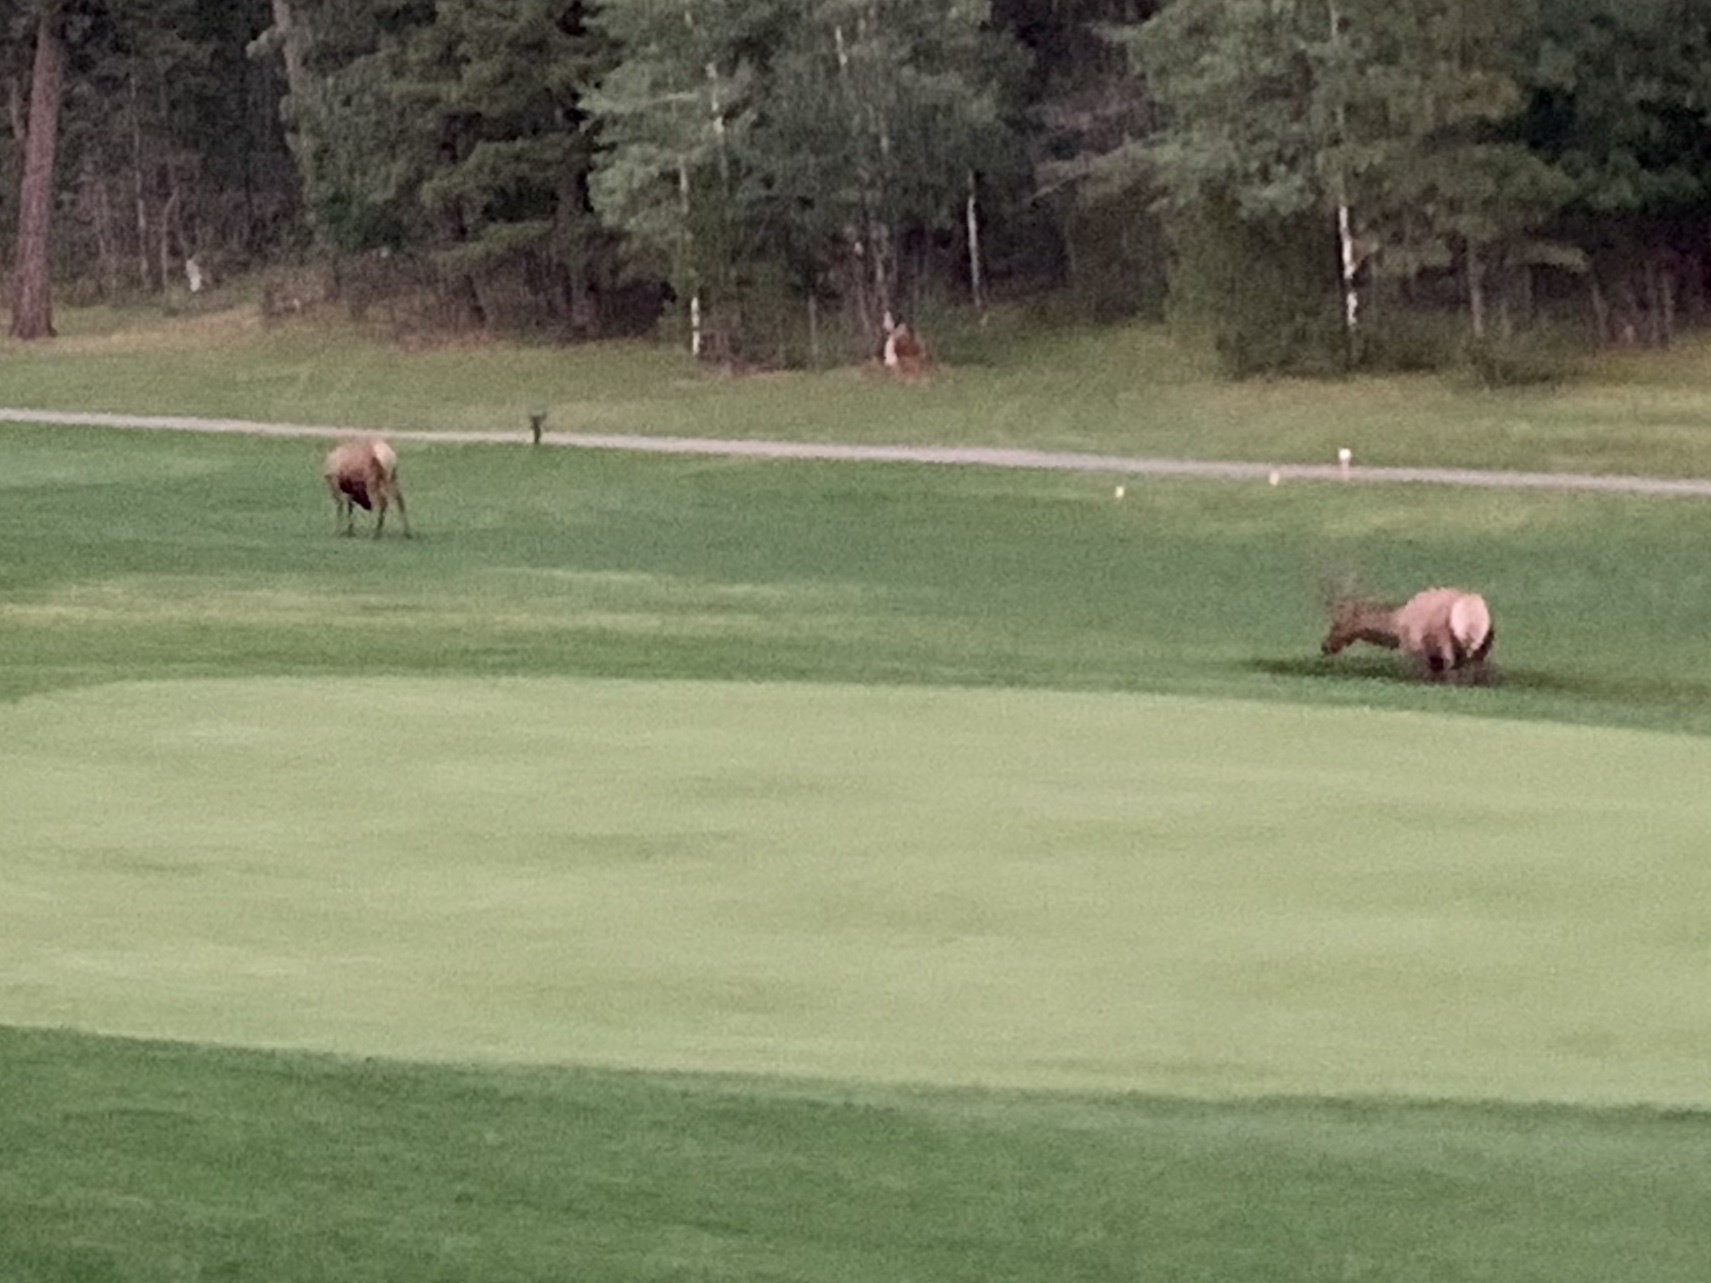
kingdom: Animalia
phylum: Chordata
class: Mammalia
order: Artiodactyla
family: Cervidae
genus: Cervus
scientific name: Cervus elaphus
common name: Red deer
